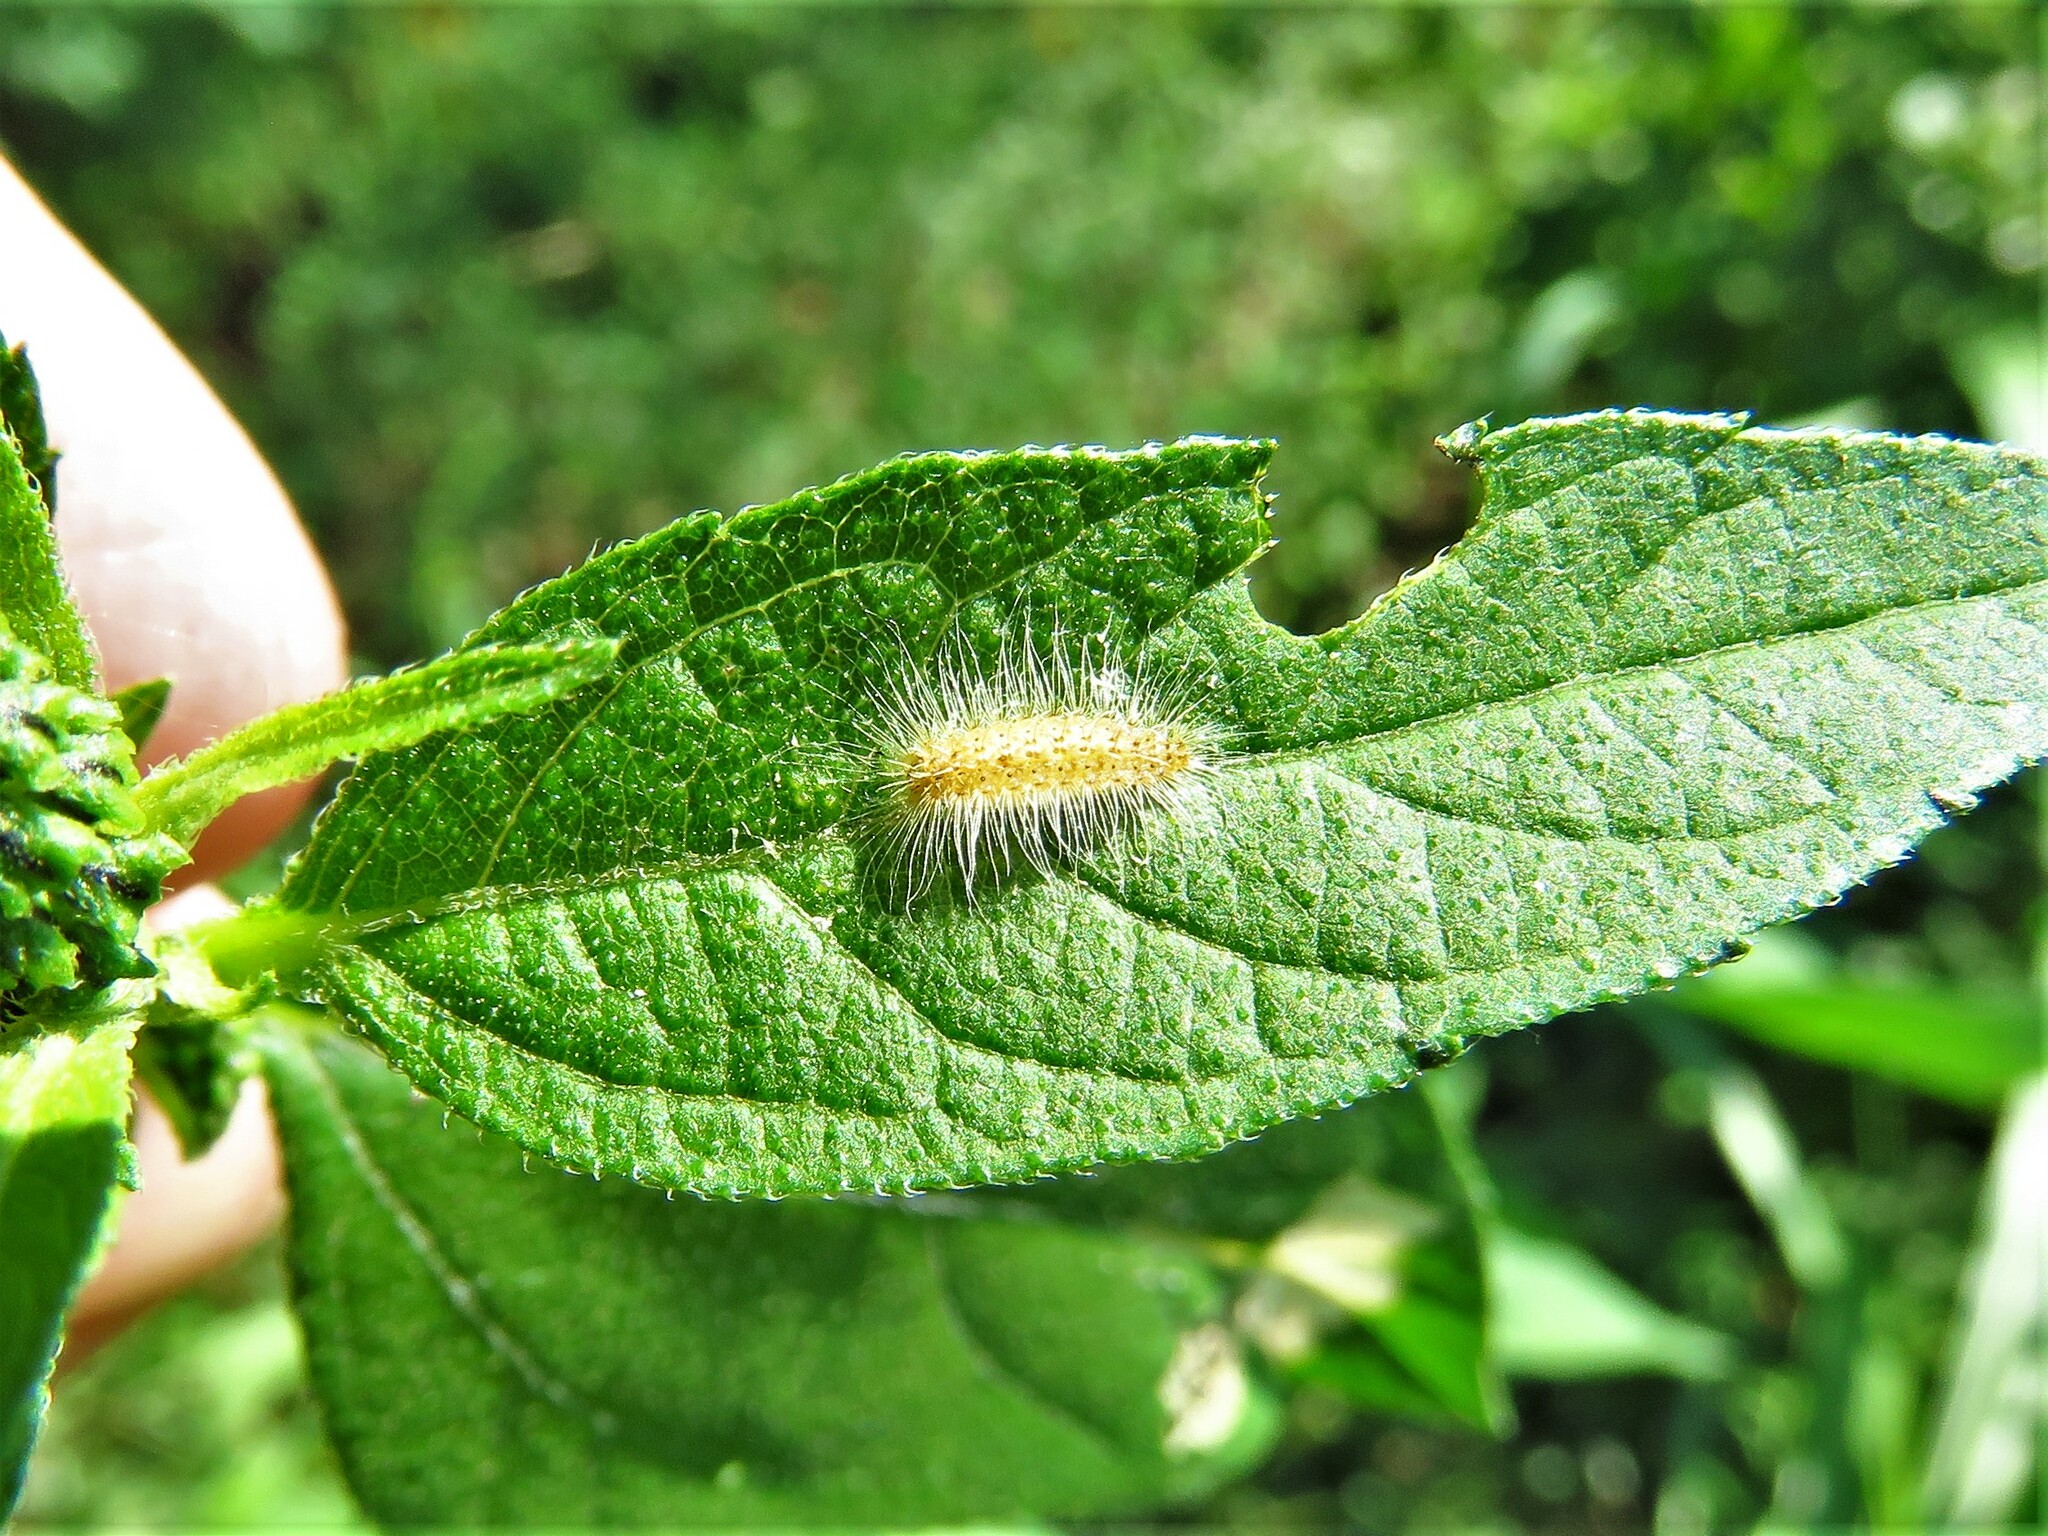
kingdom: Animalia
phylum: Arthropoda
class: Insecta
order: Lepidoptera
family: Pterophoridae
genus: Adaina
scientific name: Adaina ambrosiae
